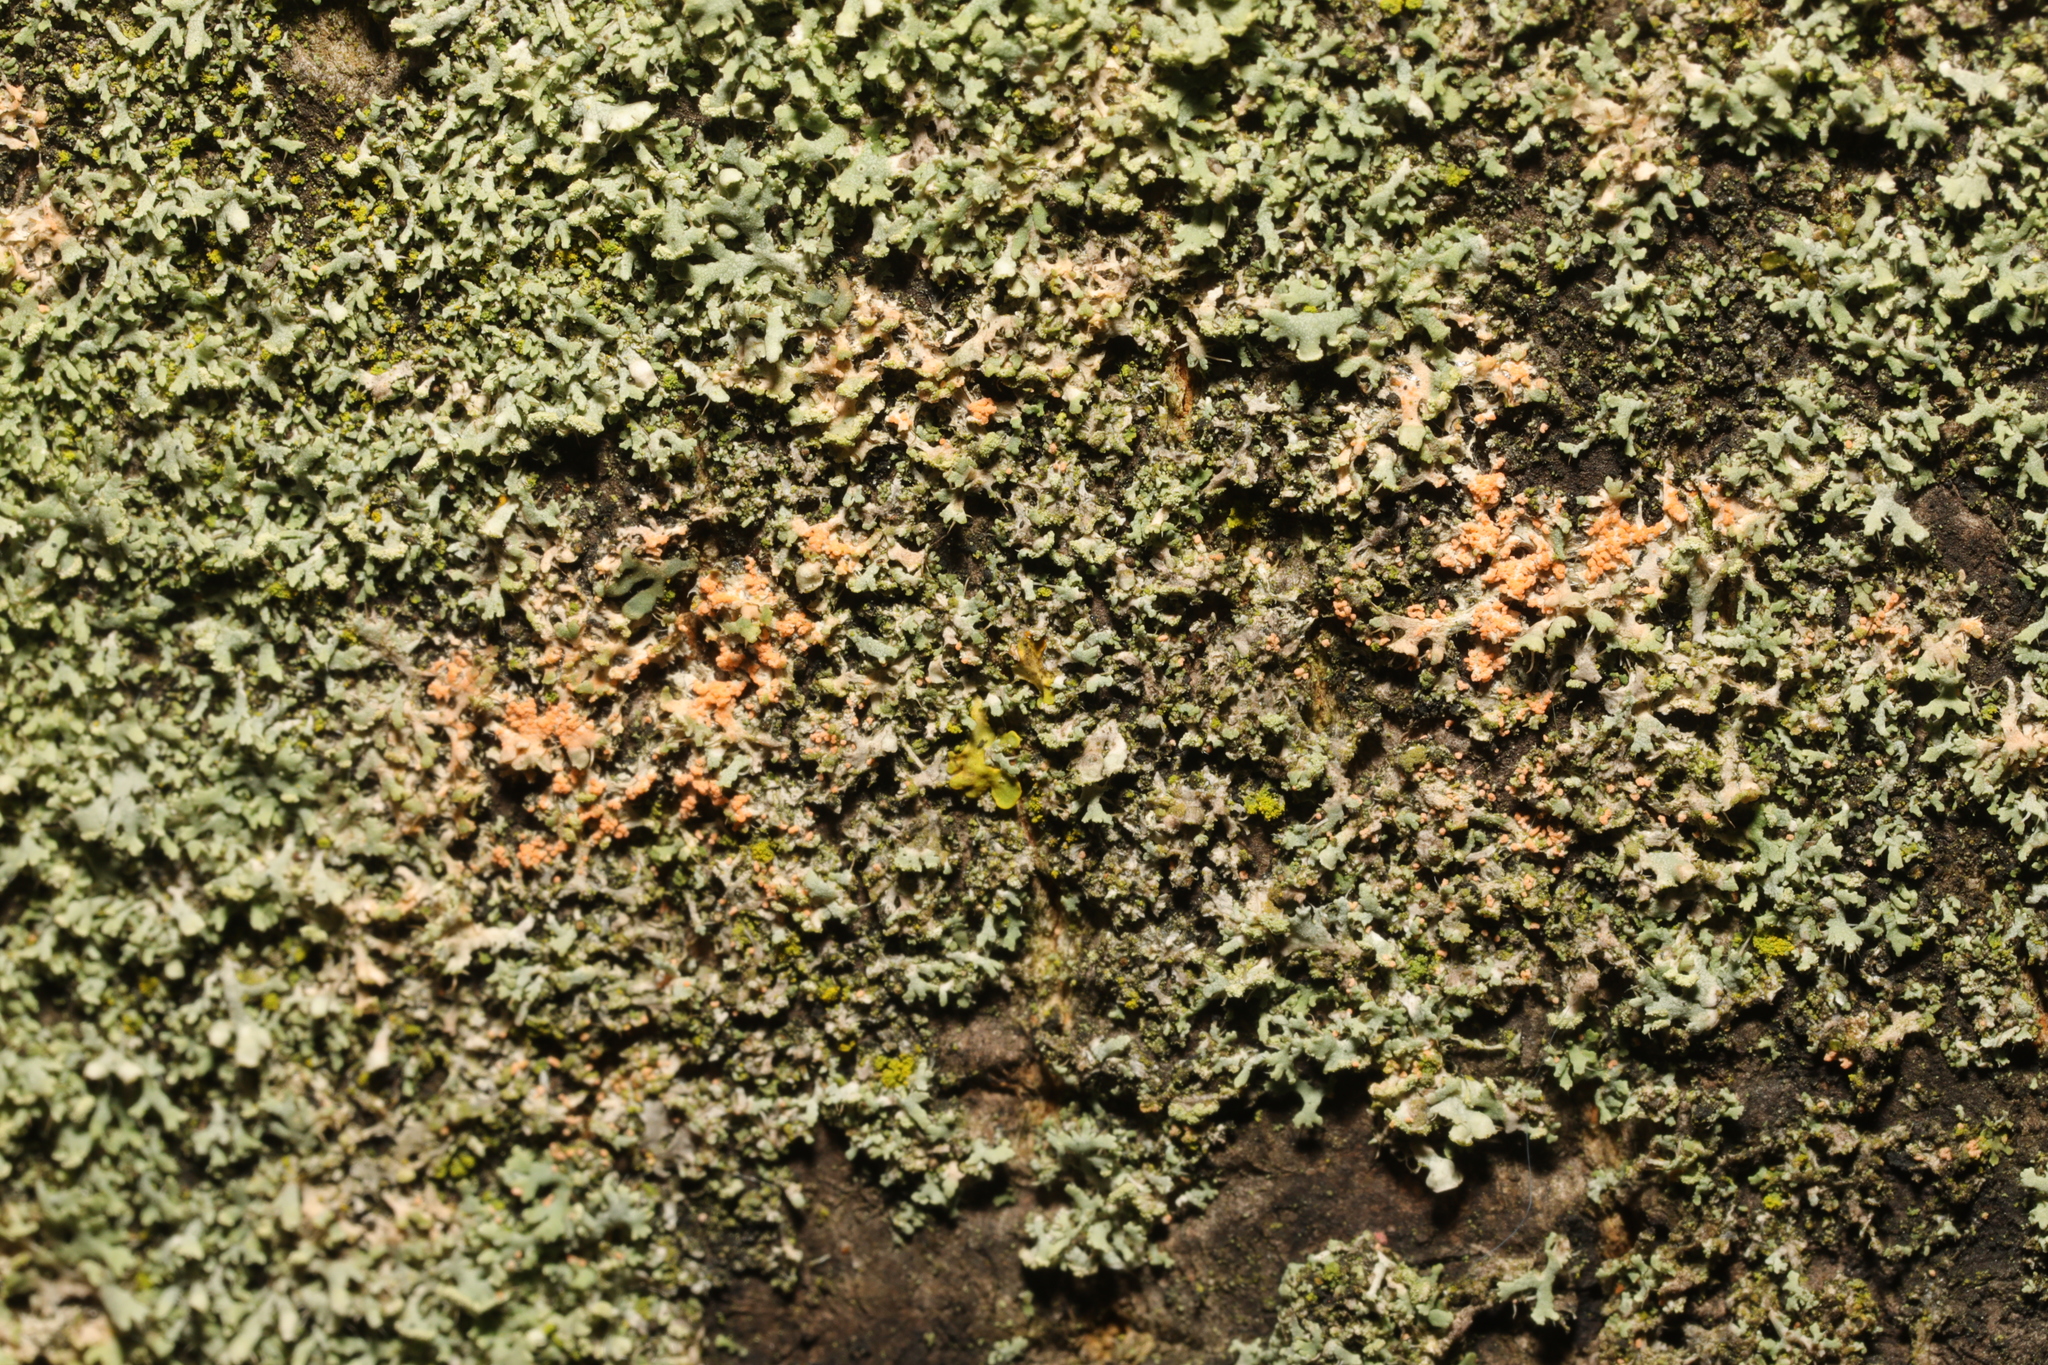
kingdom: Fungi
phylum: Basidiomycota
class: Agaricomycetes
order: Corticiales
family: Corticiaceae
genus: Erythricium
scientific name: Erythricium aurantiacum
